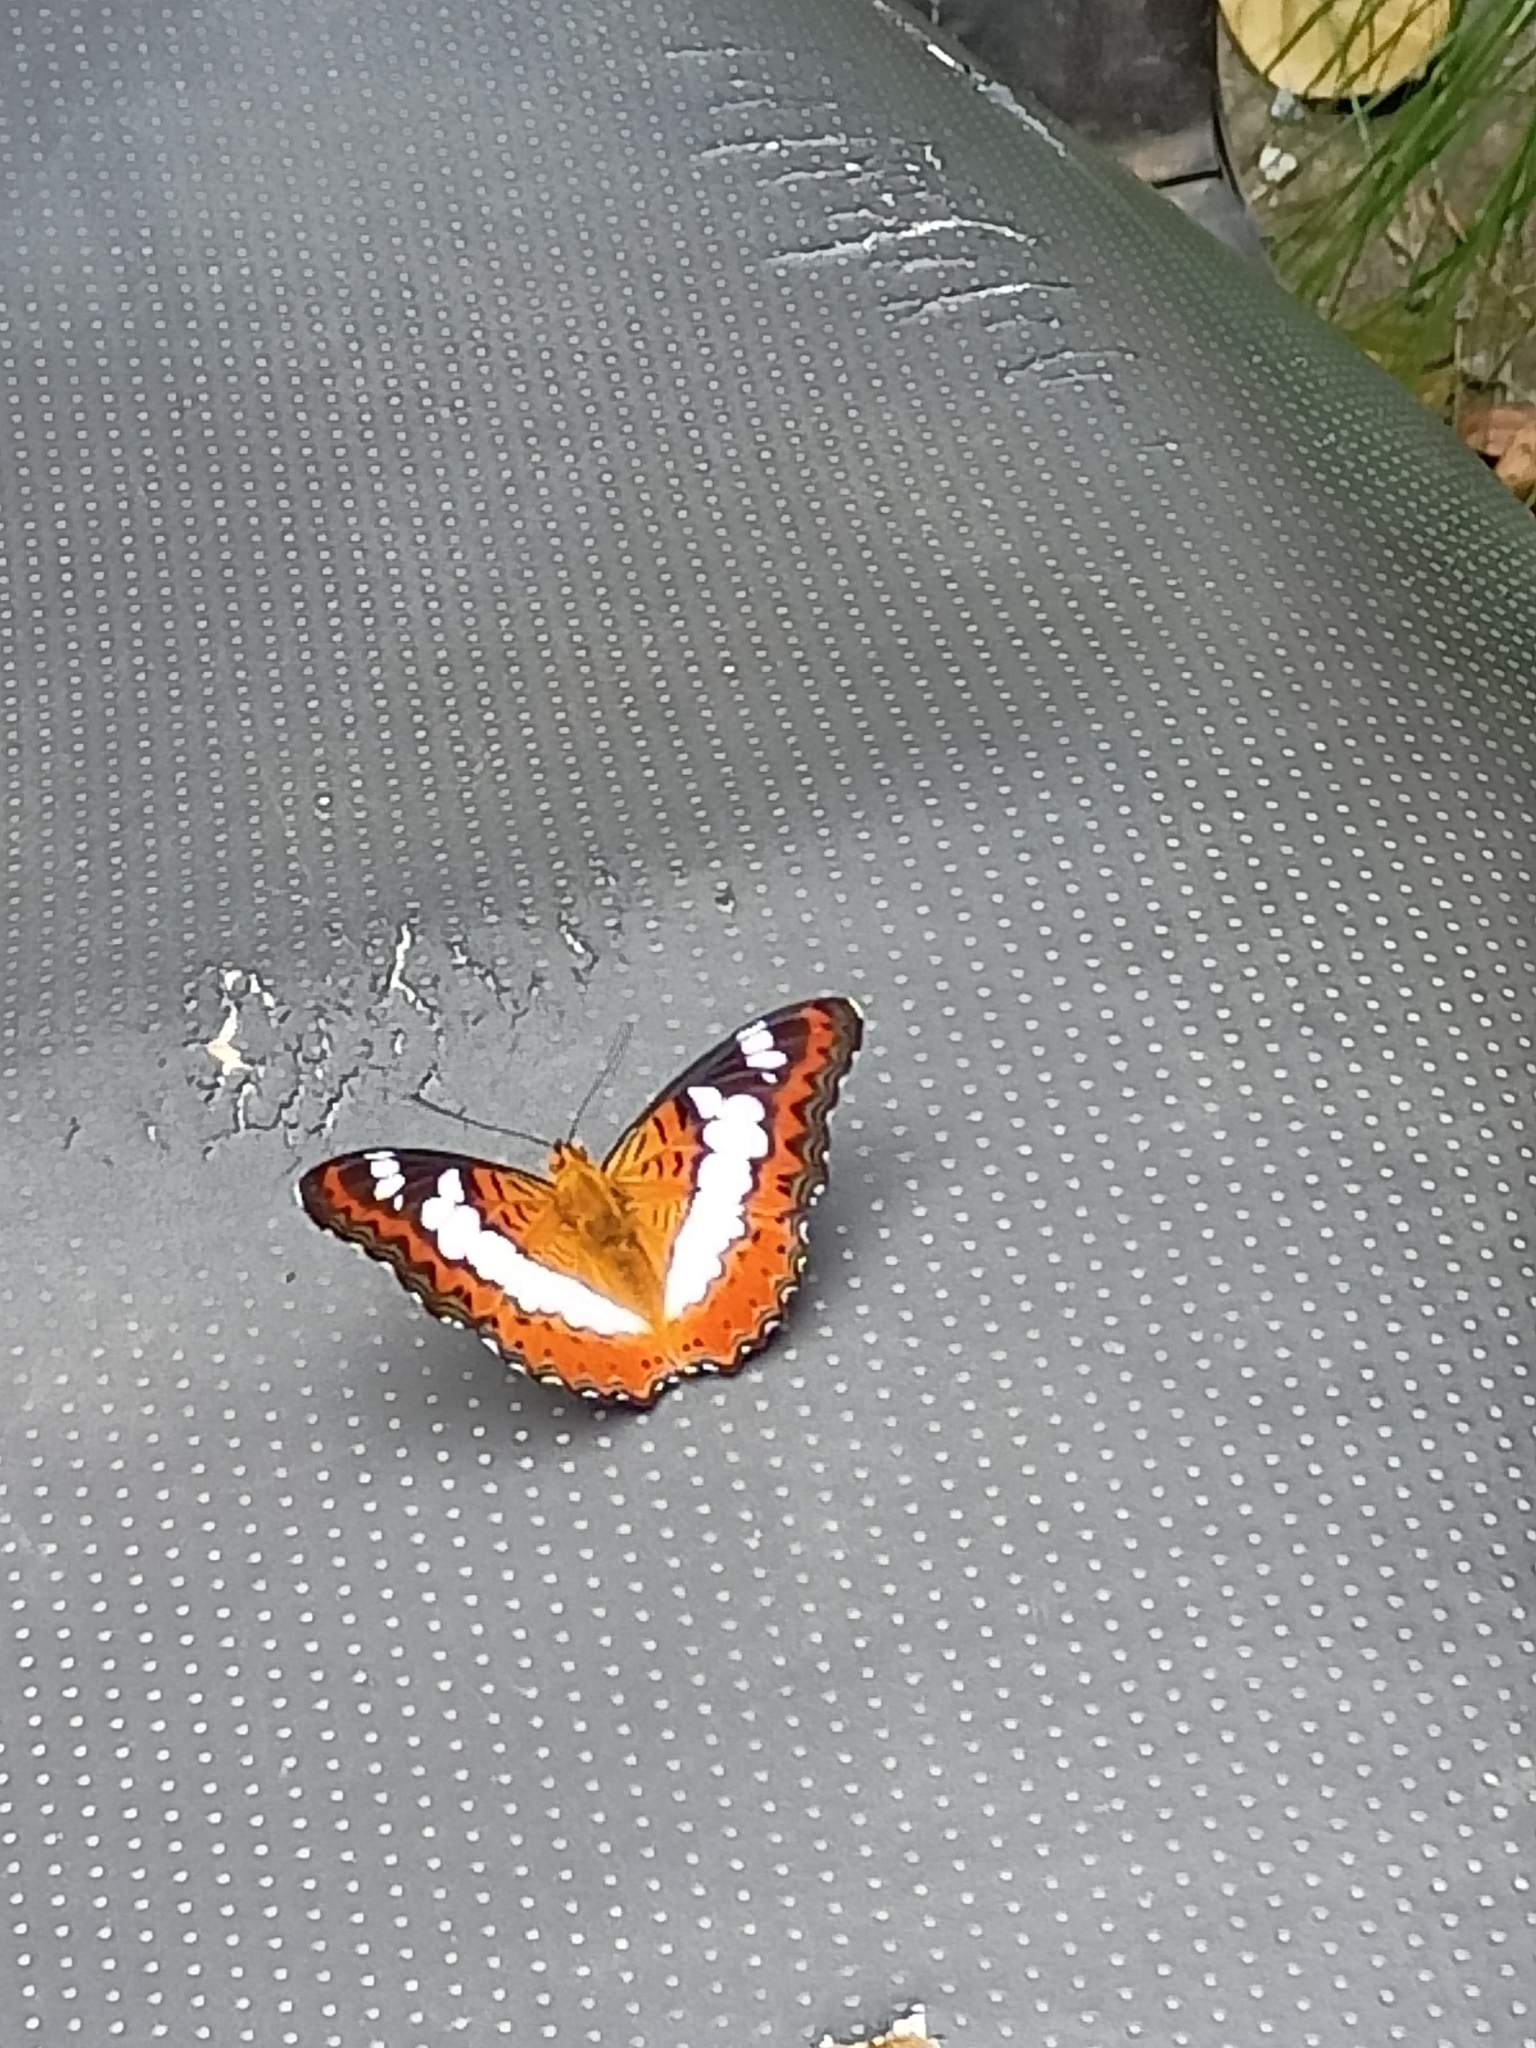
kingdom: Animalia
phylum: Arthropoda
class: Insecta
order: Lepidoptera
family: Nymphalidae
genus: Limenitis
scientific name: Limenitis Moduza procris
